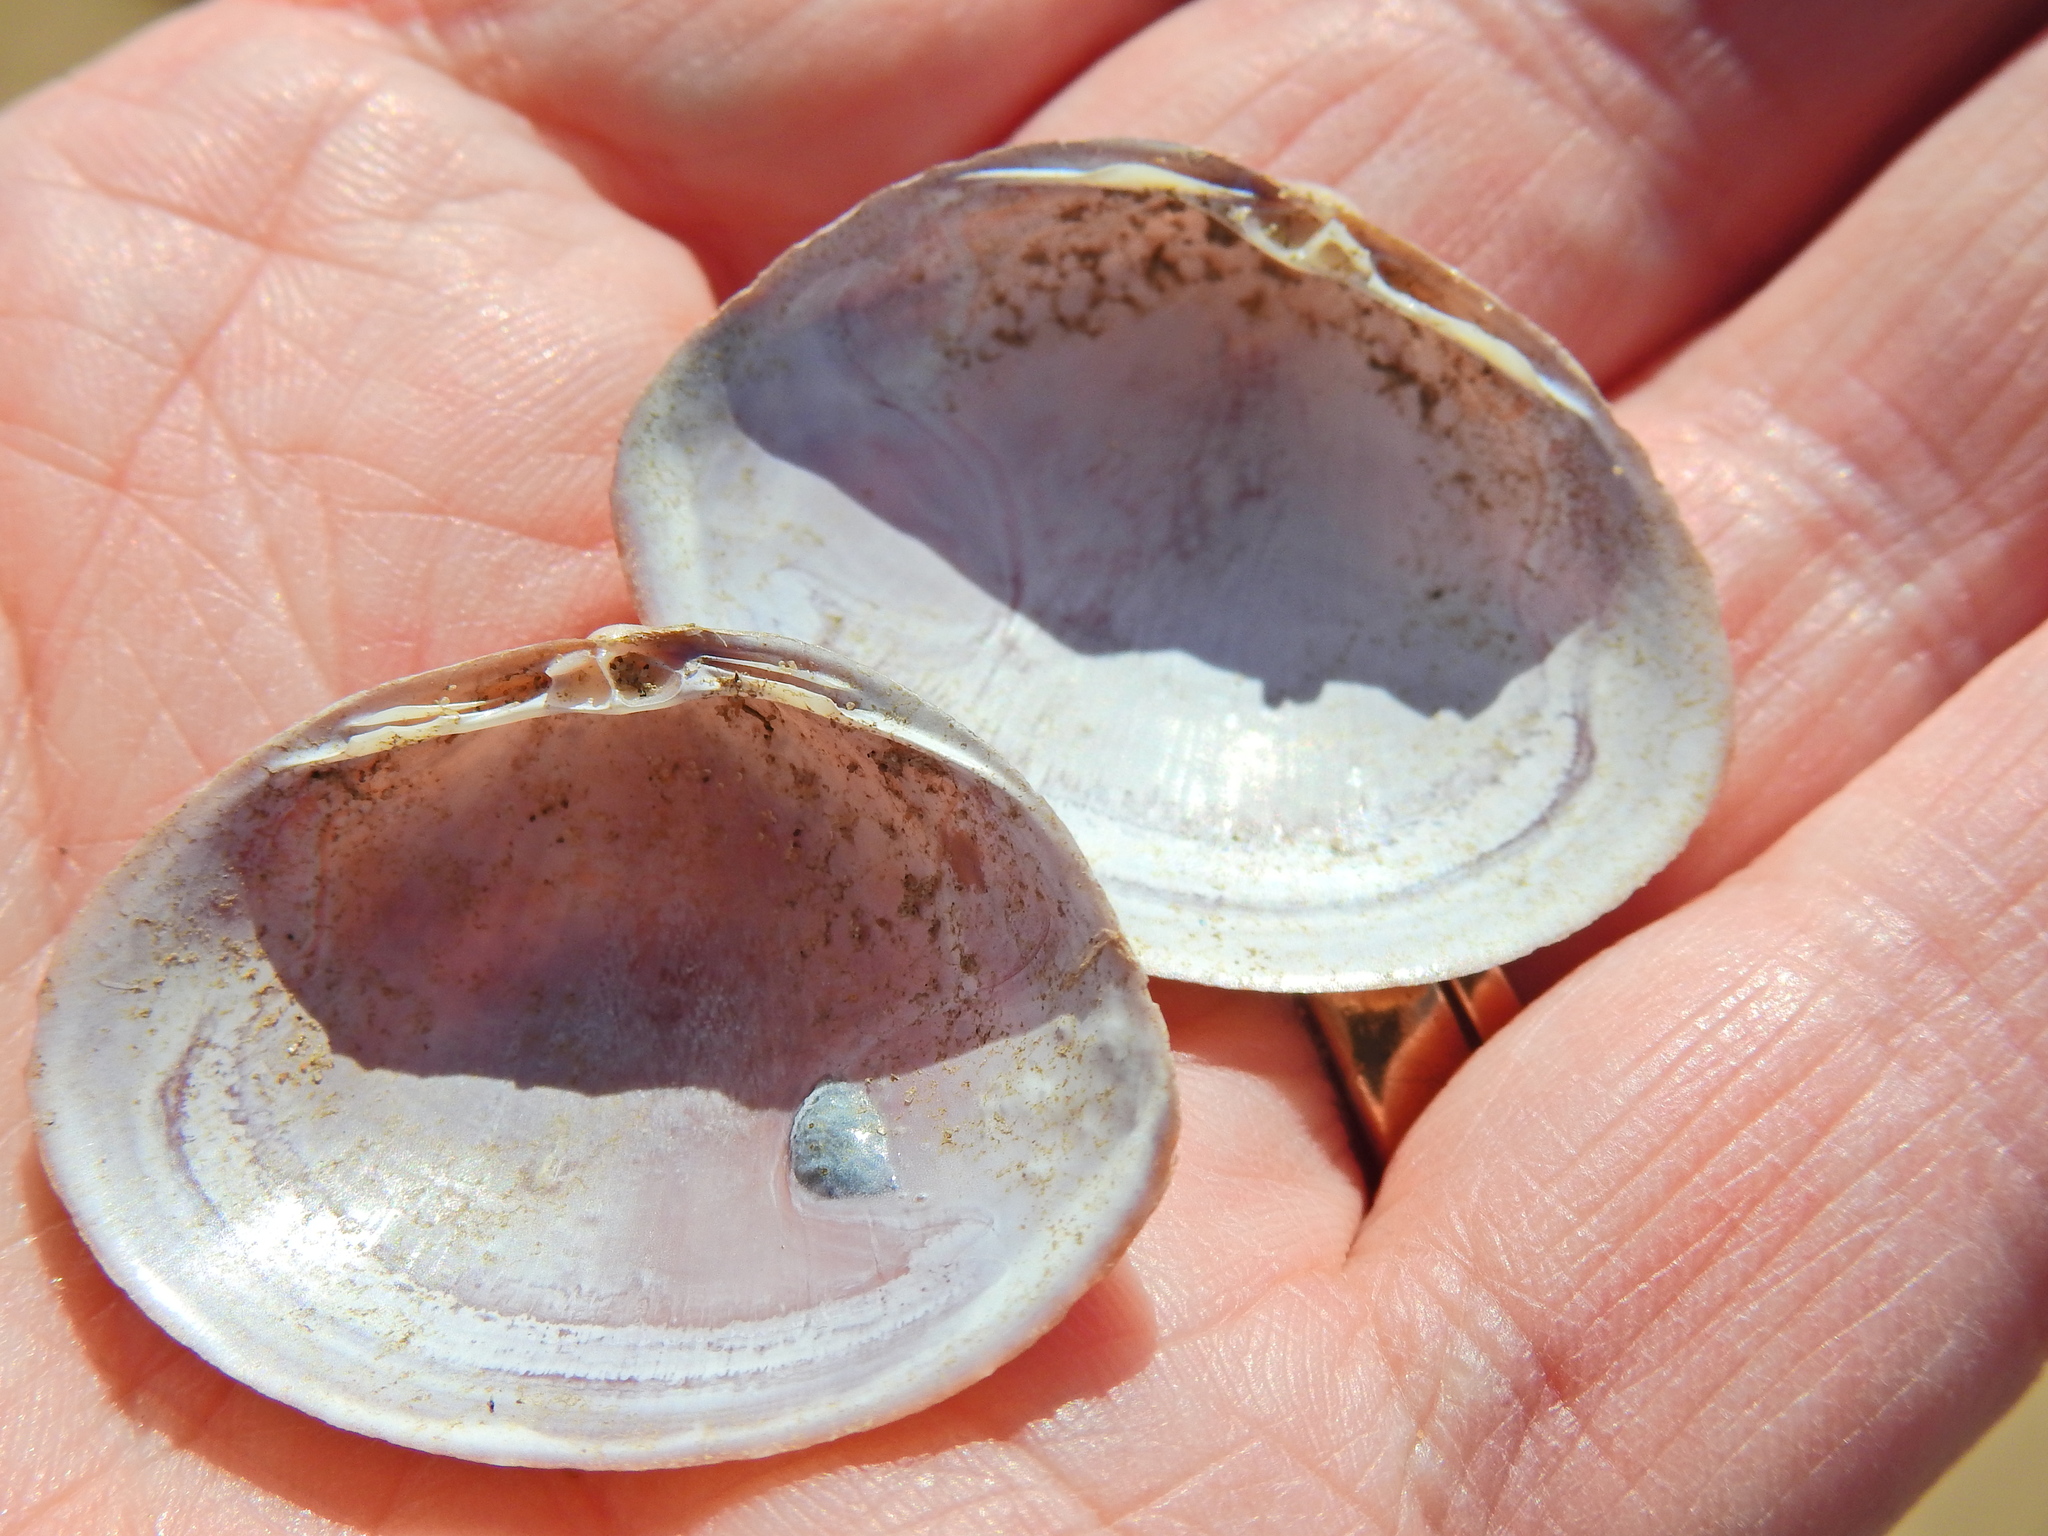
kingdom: Animalia
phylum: Mollusca
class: Bivalvia
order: Venerida
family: Mactridae
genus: Mactra
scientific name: Mactra stultorum
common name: Rayed trough shell
